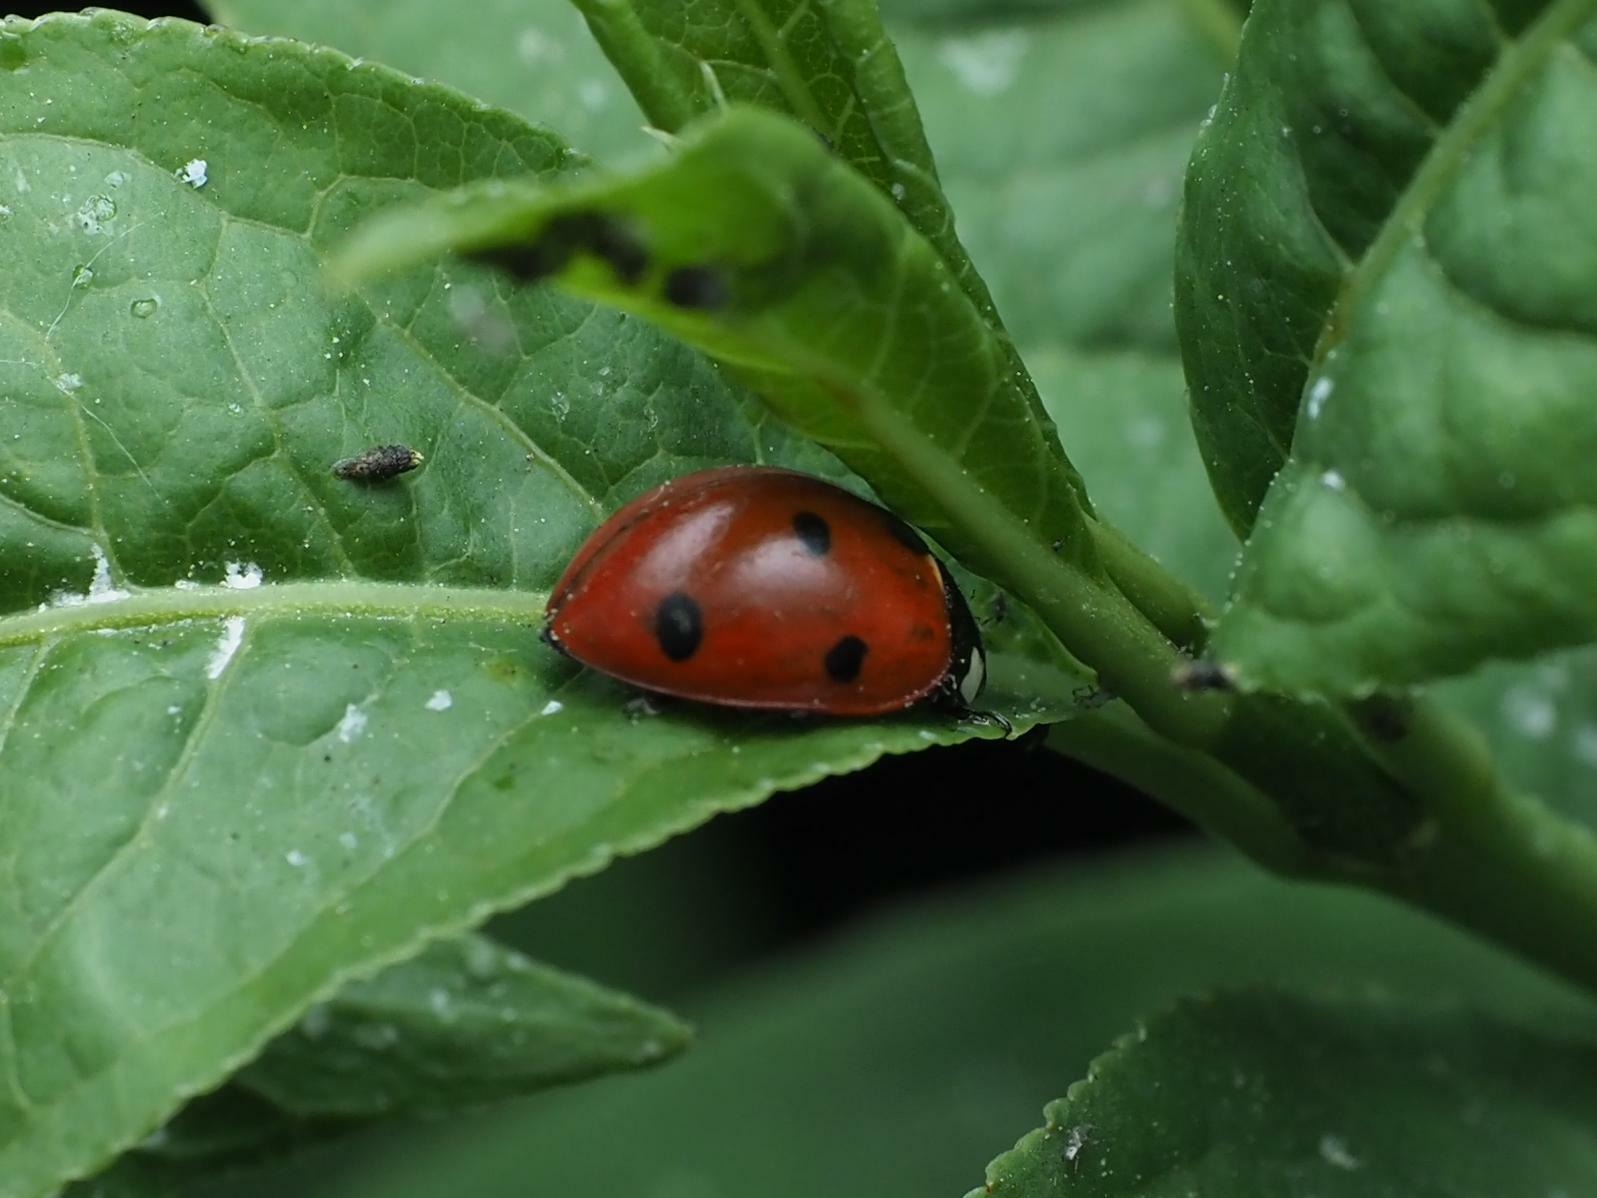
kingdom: Animalia
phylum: Arthropoda
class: Insecta
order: Coleoptera
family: Coccinellidae
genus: Coccinella
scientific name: Coccinella septempunctata
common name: Sevenspotted lady beetle
